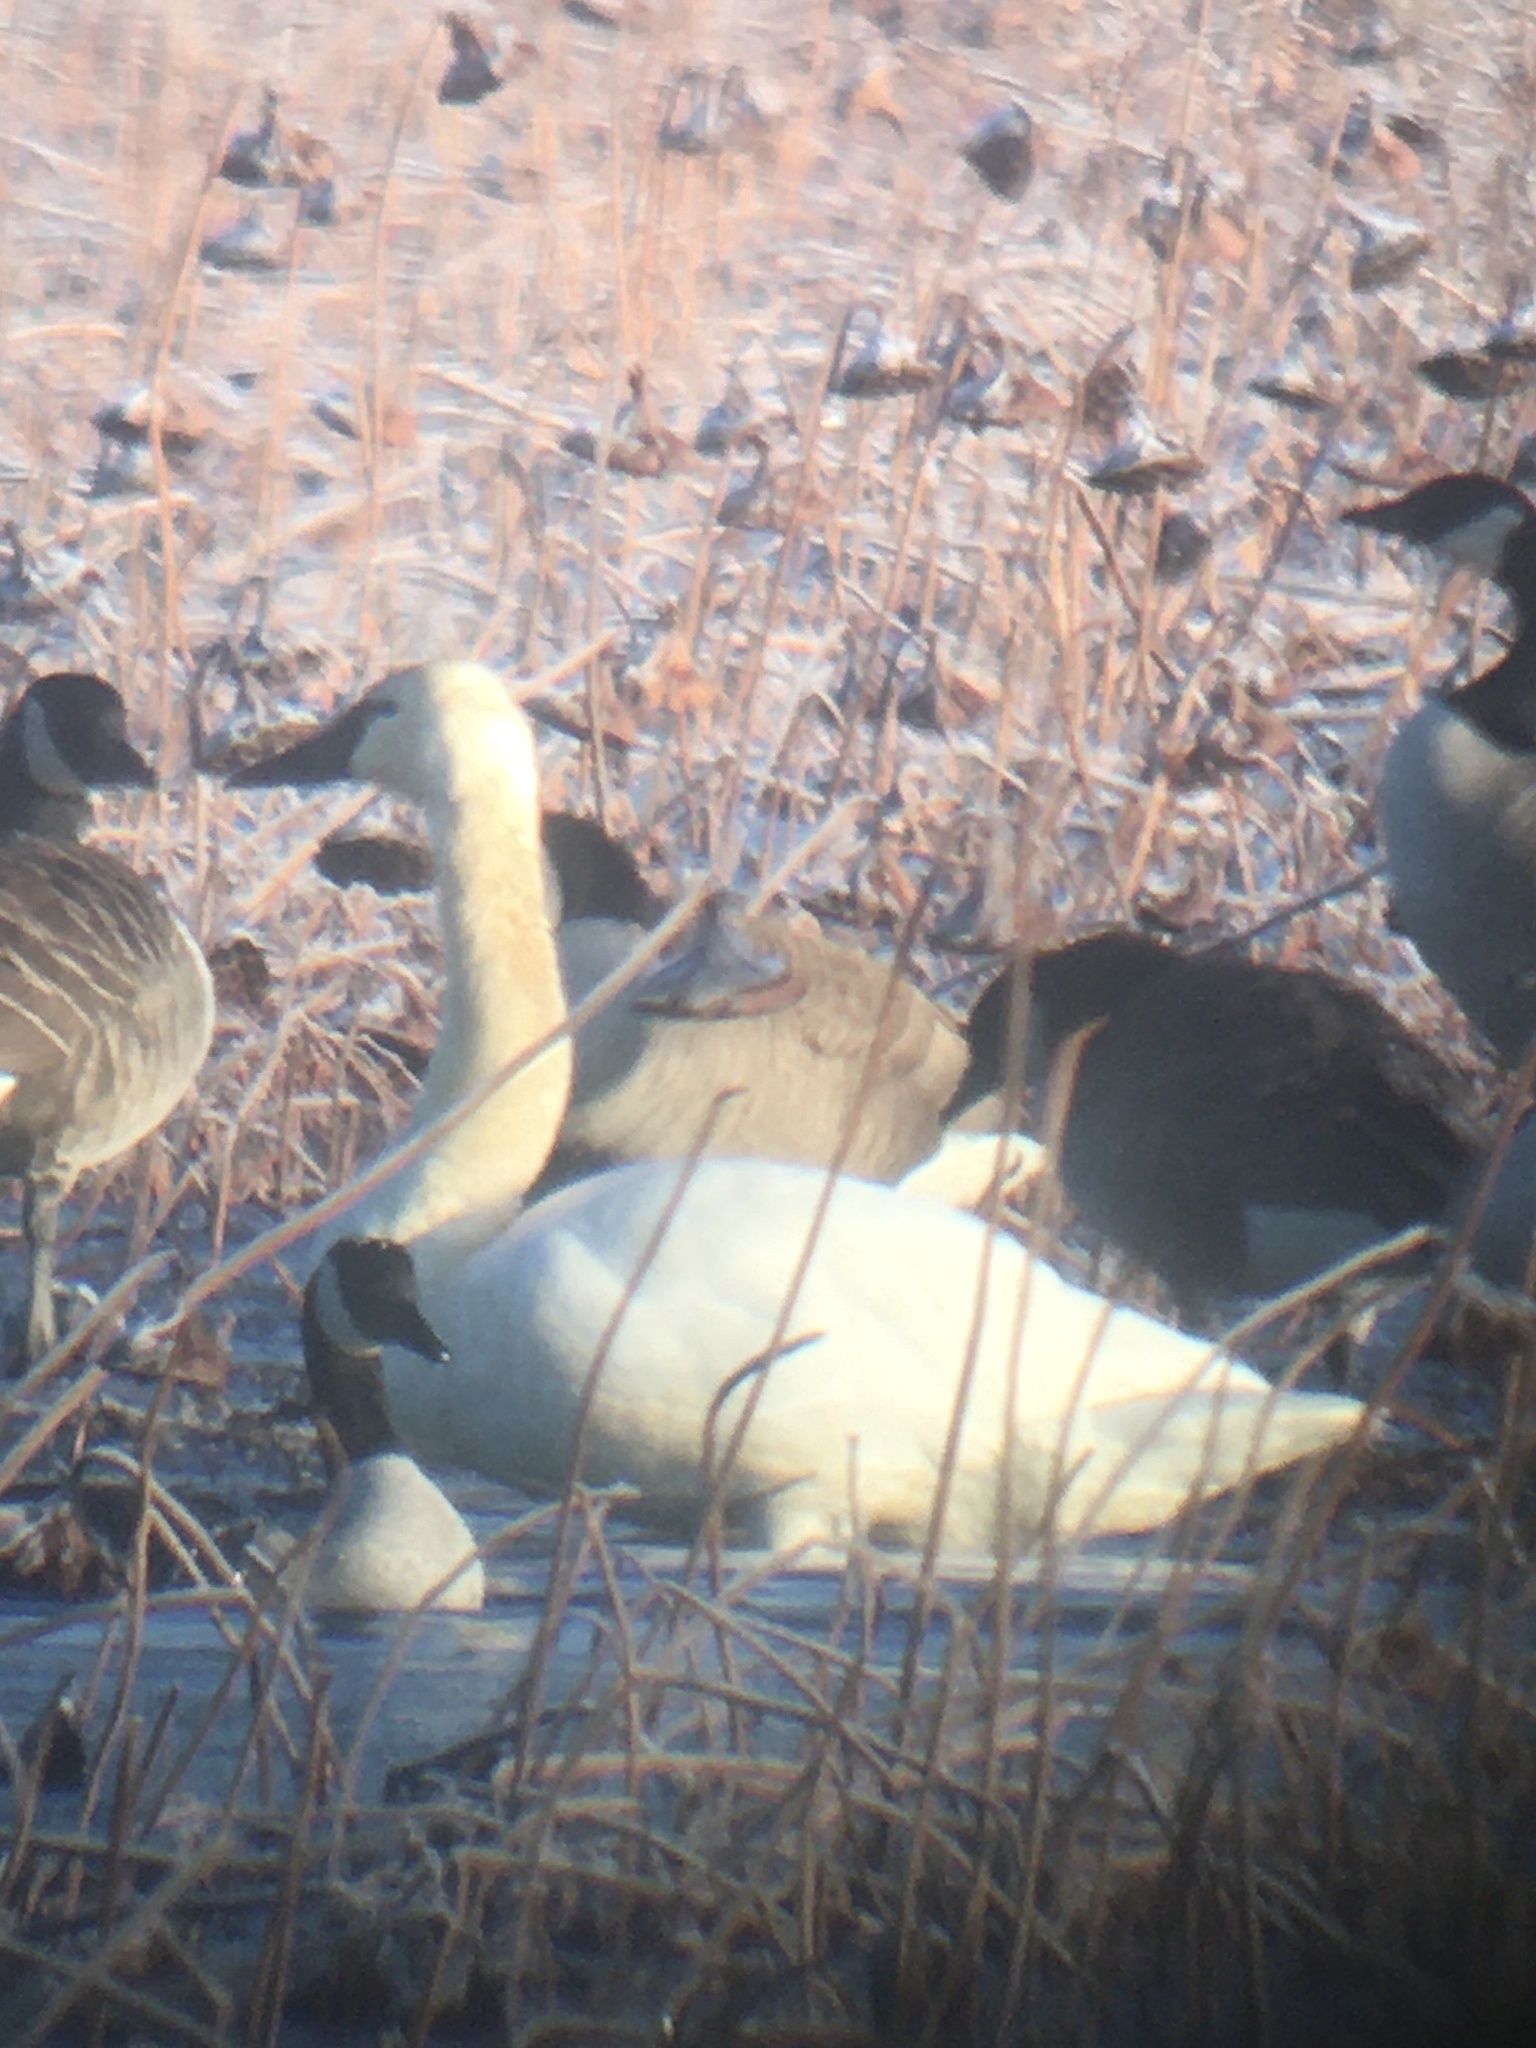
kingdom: Animalia
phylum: Chordata
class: Aves
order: Anseriformes
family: Anatidae
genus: Cygnus
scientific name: Cygnus columbianus
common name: Tundra swan
